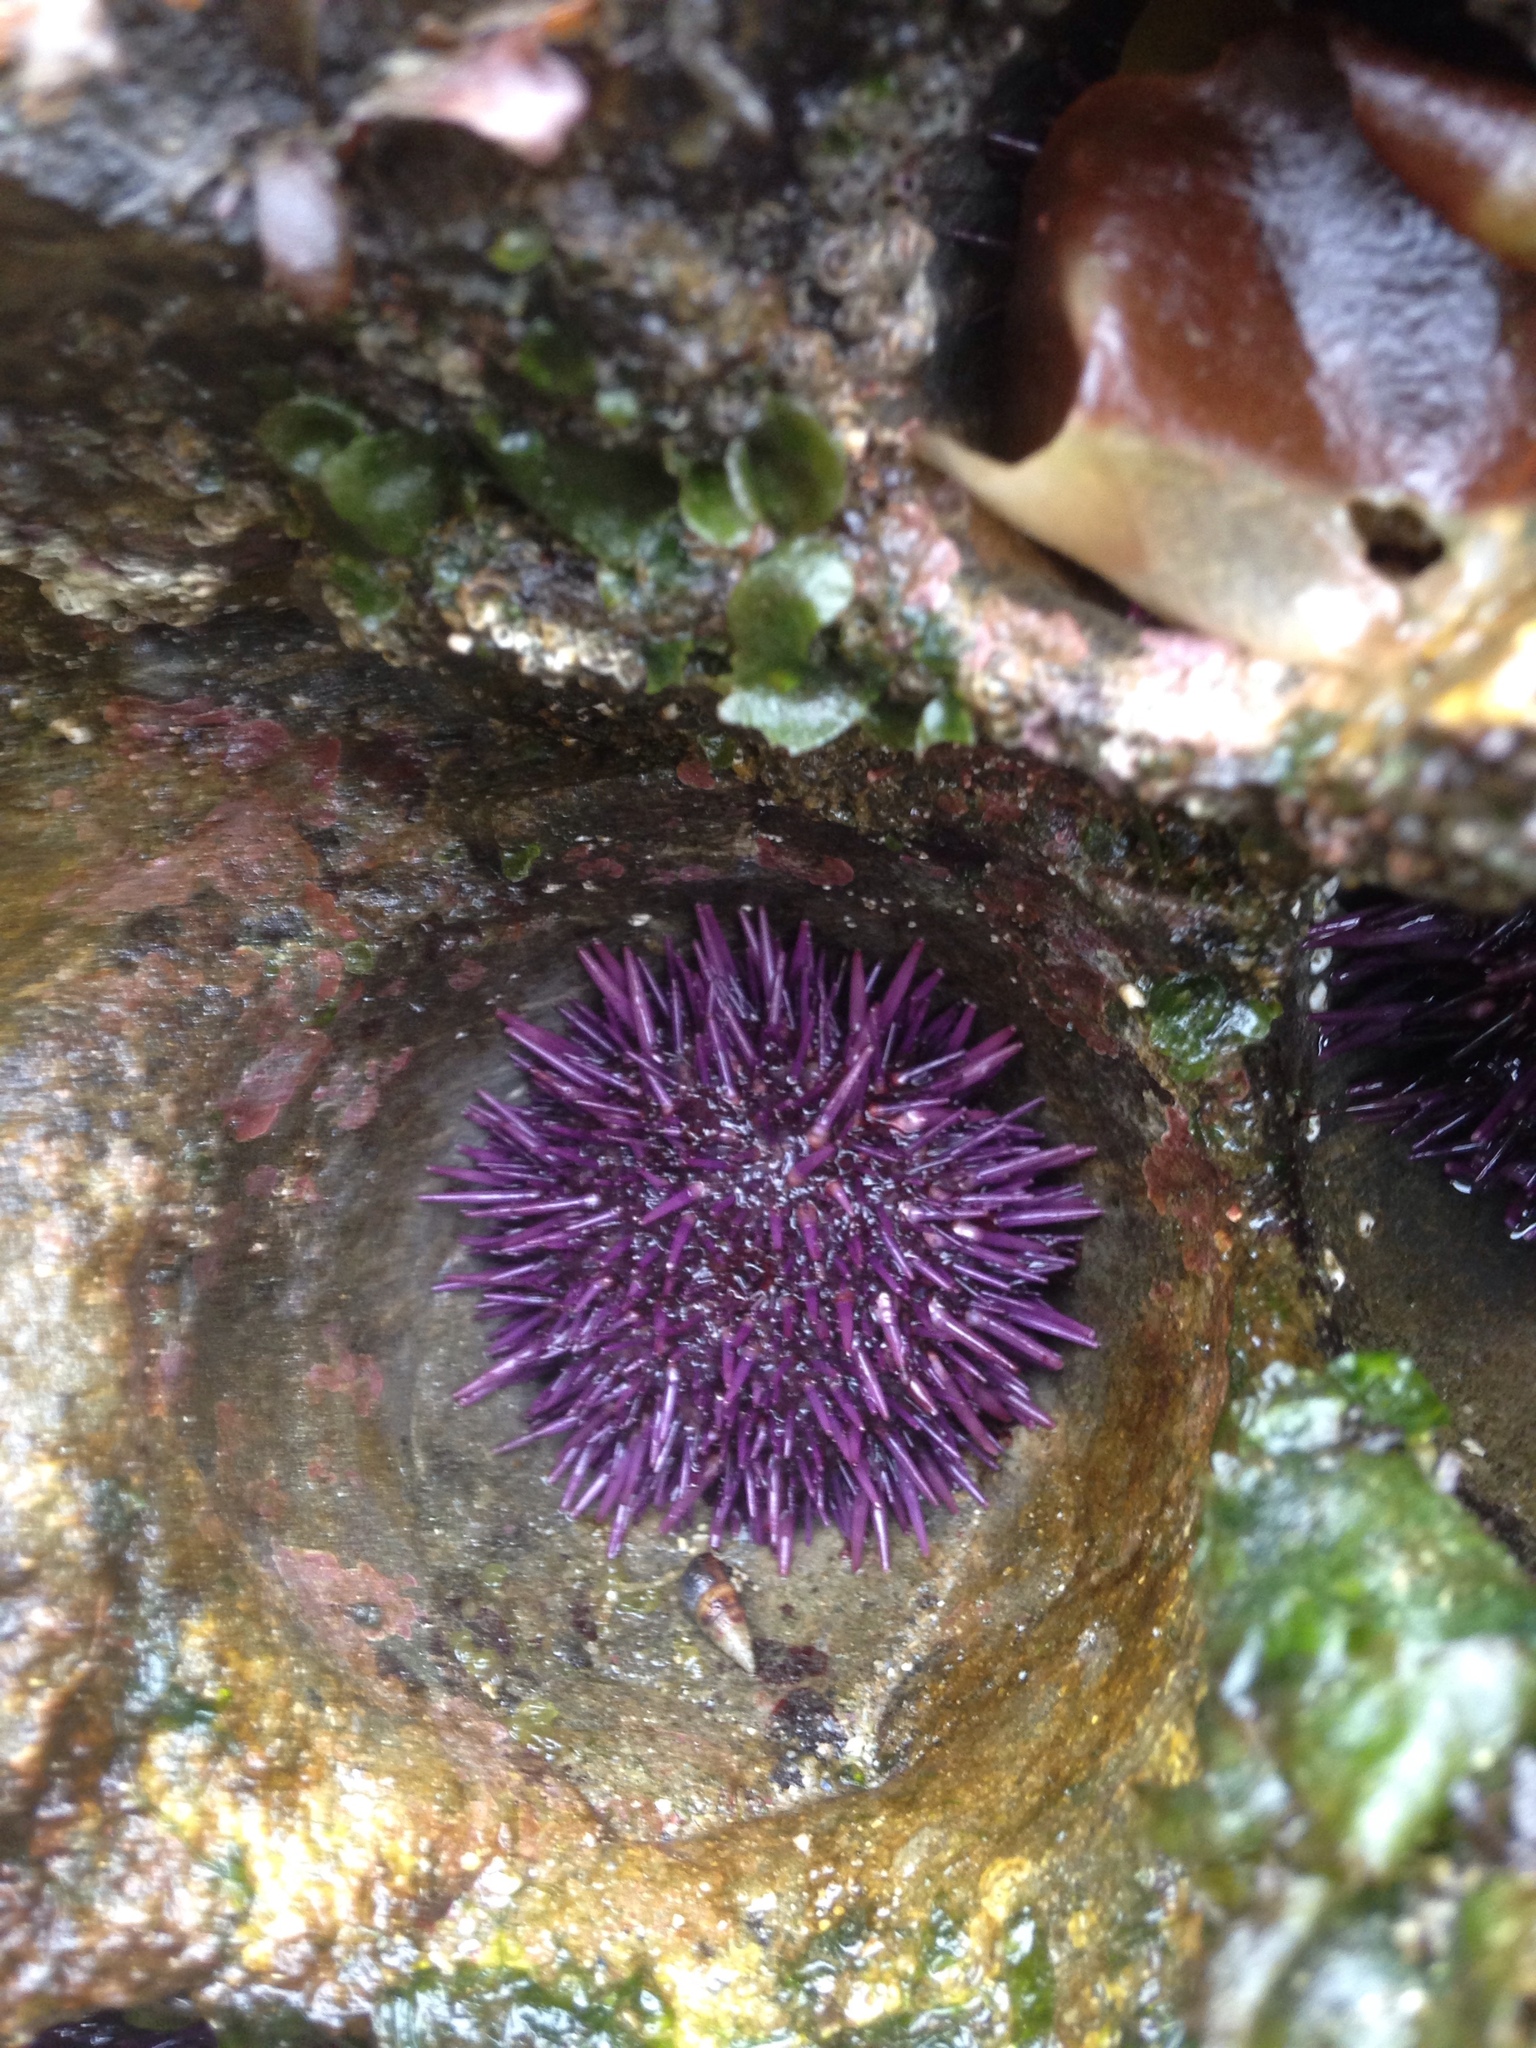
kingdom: Animalia
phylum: Echinodermata
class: Echinoidea
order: Camarodonta
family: Strongylocentrotidae
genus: Strongylocentrotus
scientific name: Strongylocentrotus purpuratus
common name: Purple sea urchin
